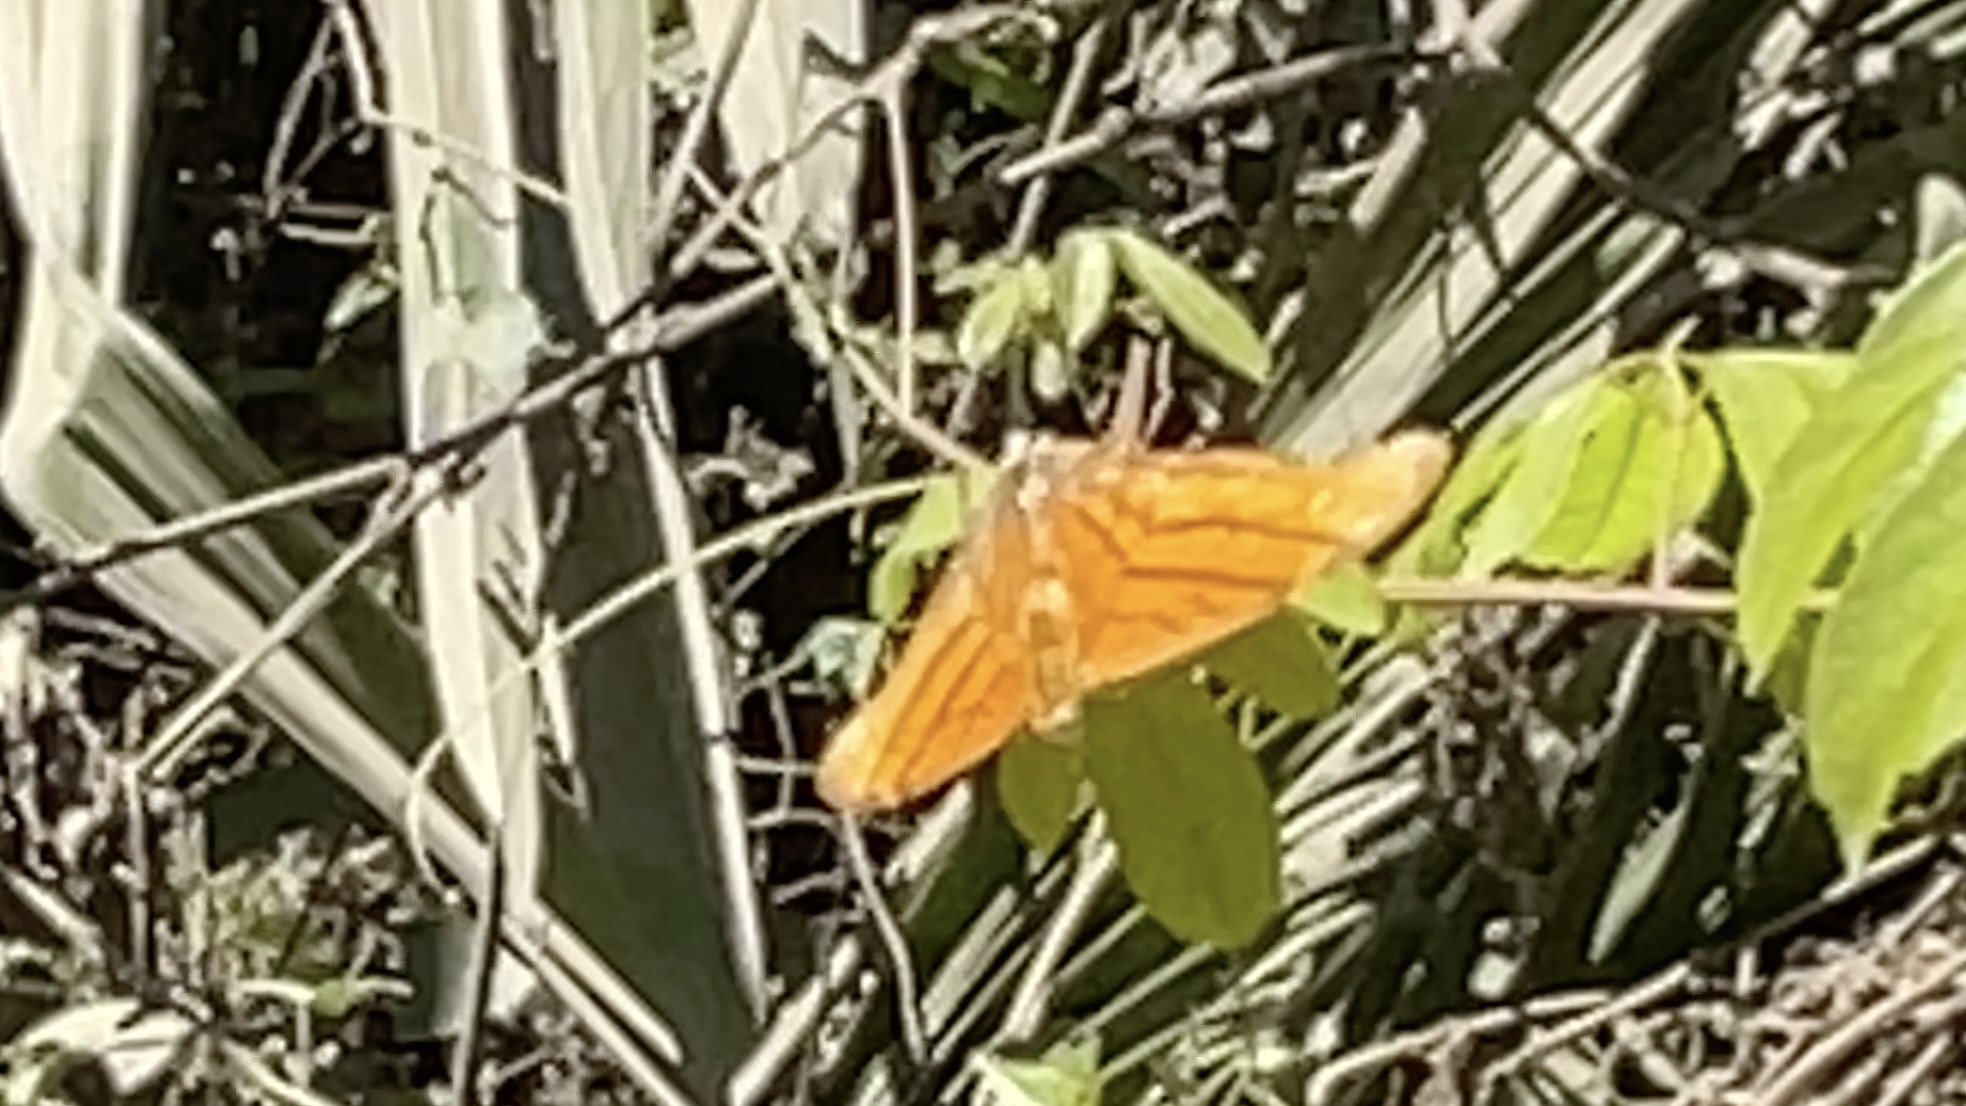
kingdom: Animalia
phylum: Arthropoda
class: Insecta
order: Lepidoptera
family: Nymphalidae
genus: Marpesia
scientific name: Marpesia petreus
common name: Red dagger wing
